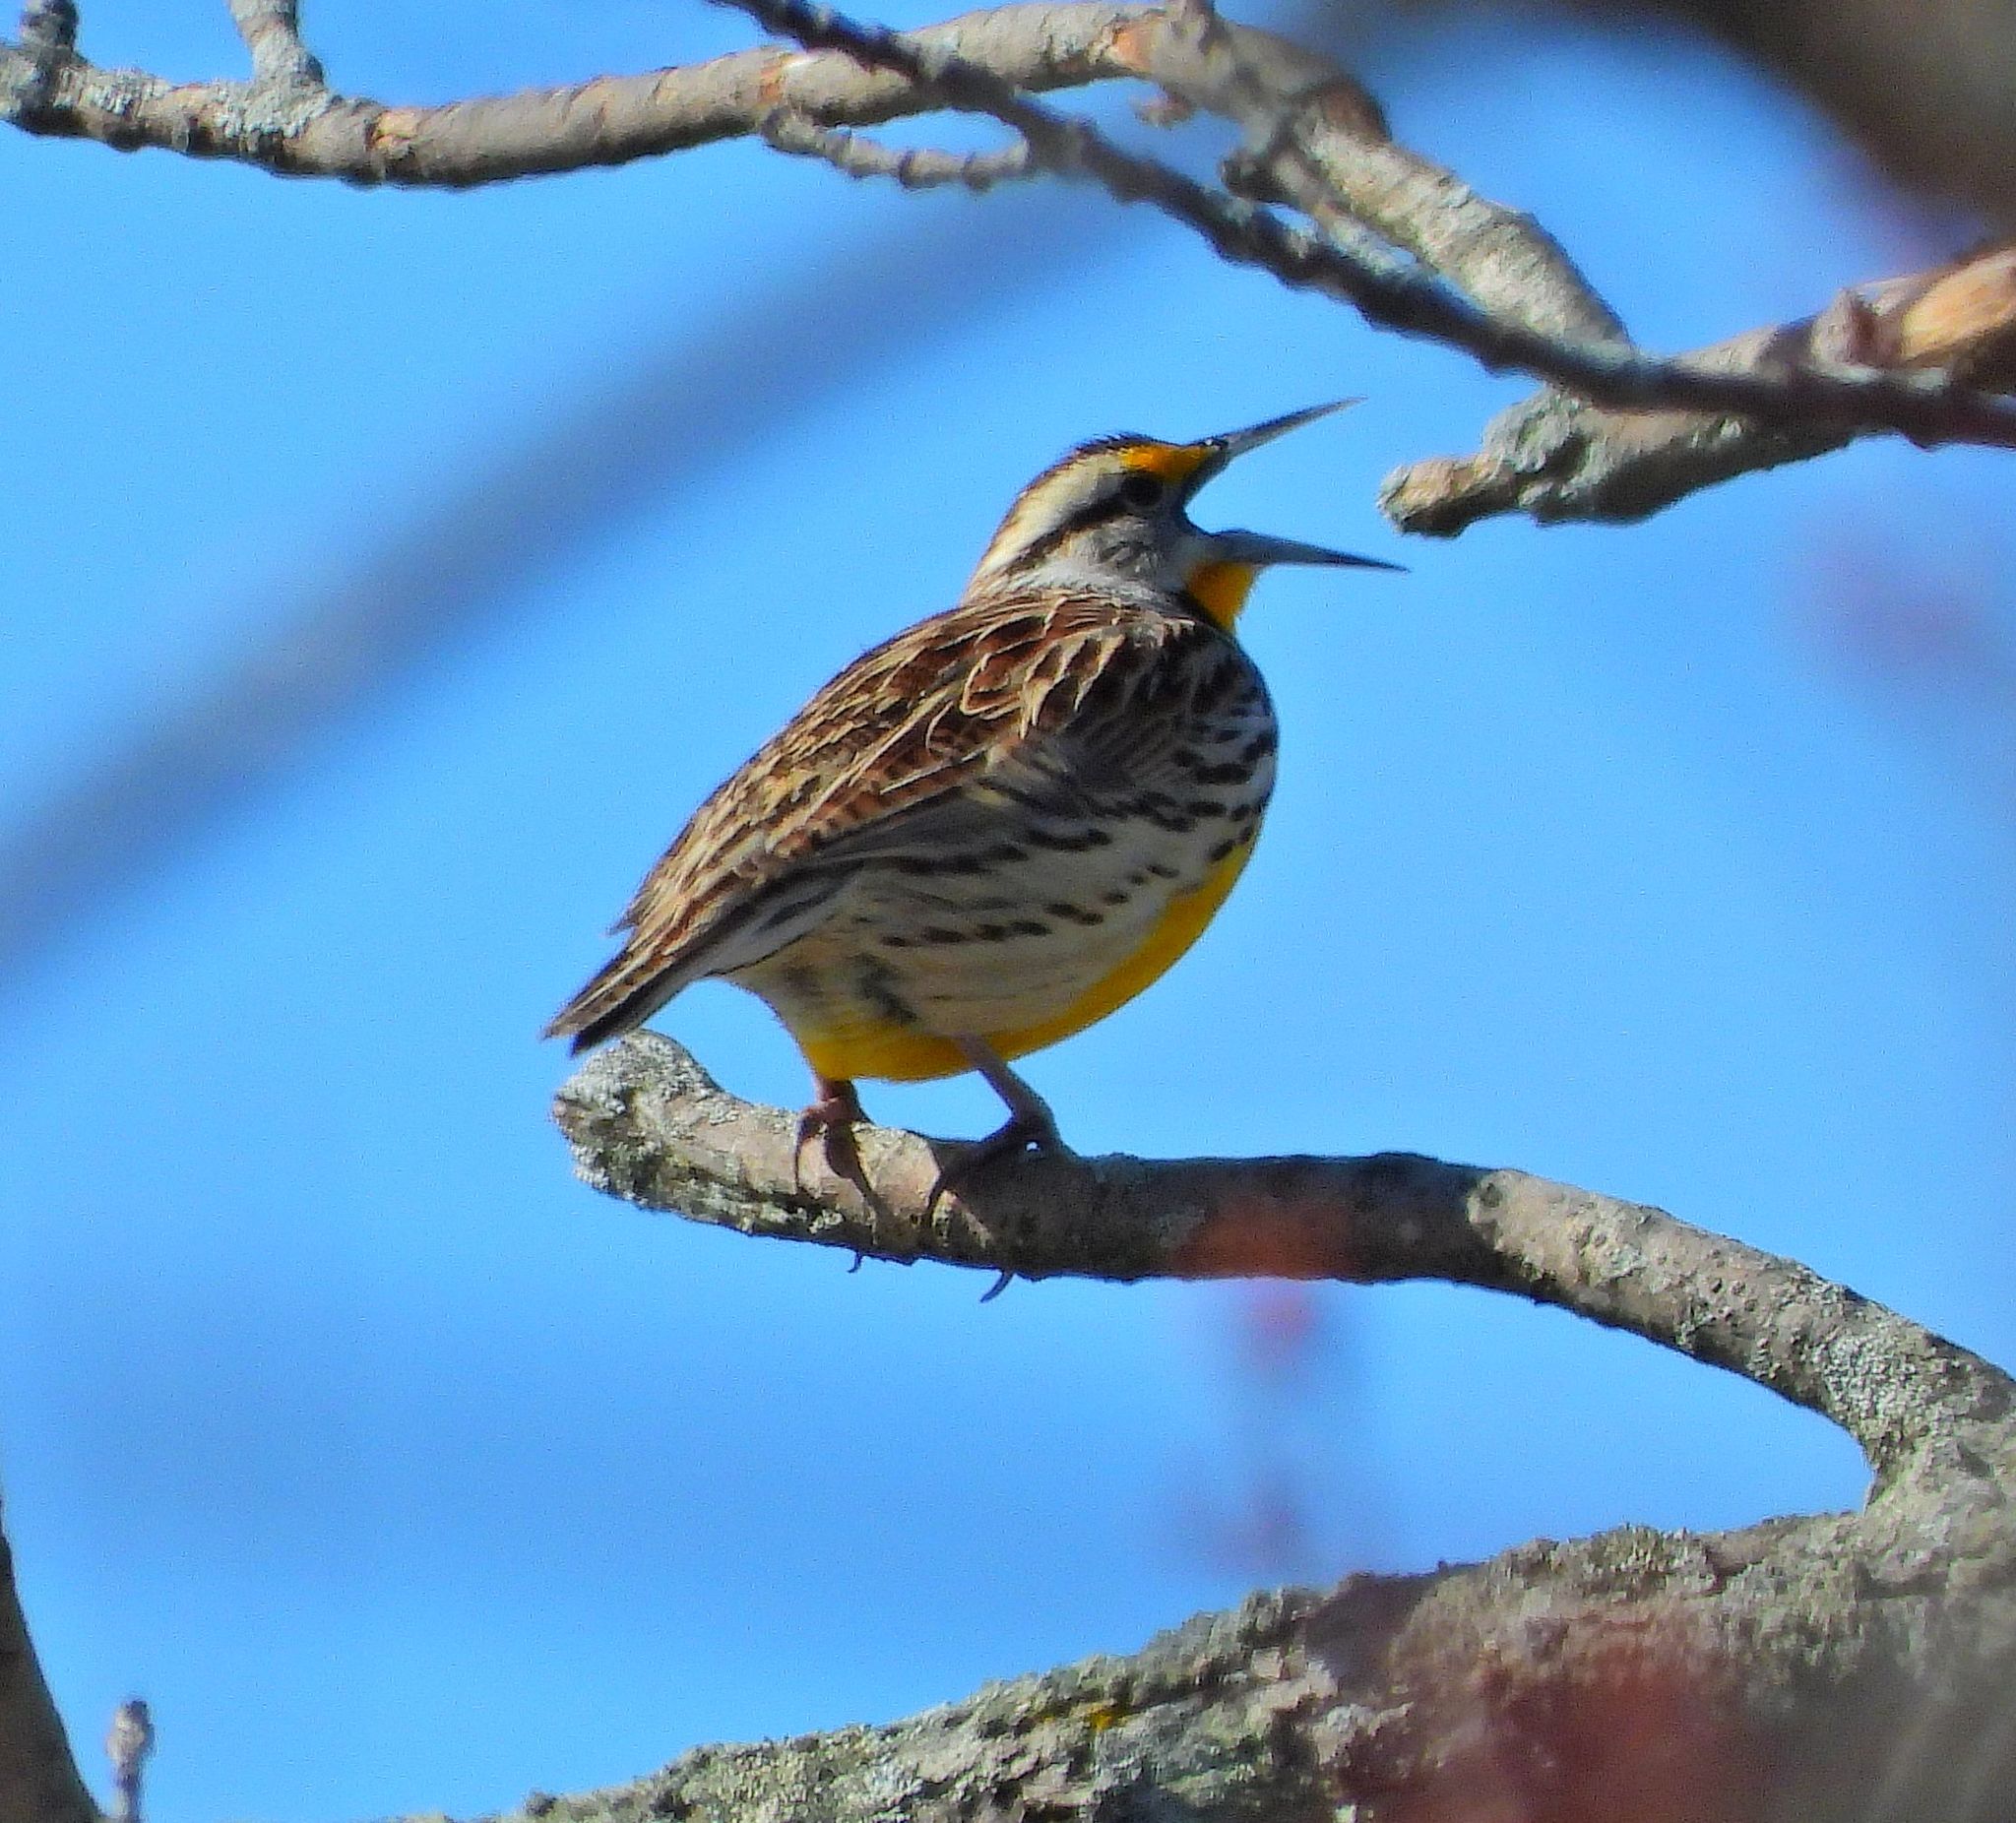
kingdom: Animalia
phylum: Chordata
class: Aves
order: Passeriformes
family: Icteridae
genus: Sturnella
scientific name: Sturnella magna
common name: Eastern meadowlark
